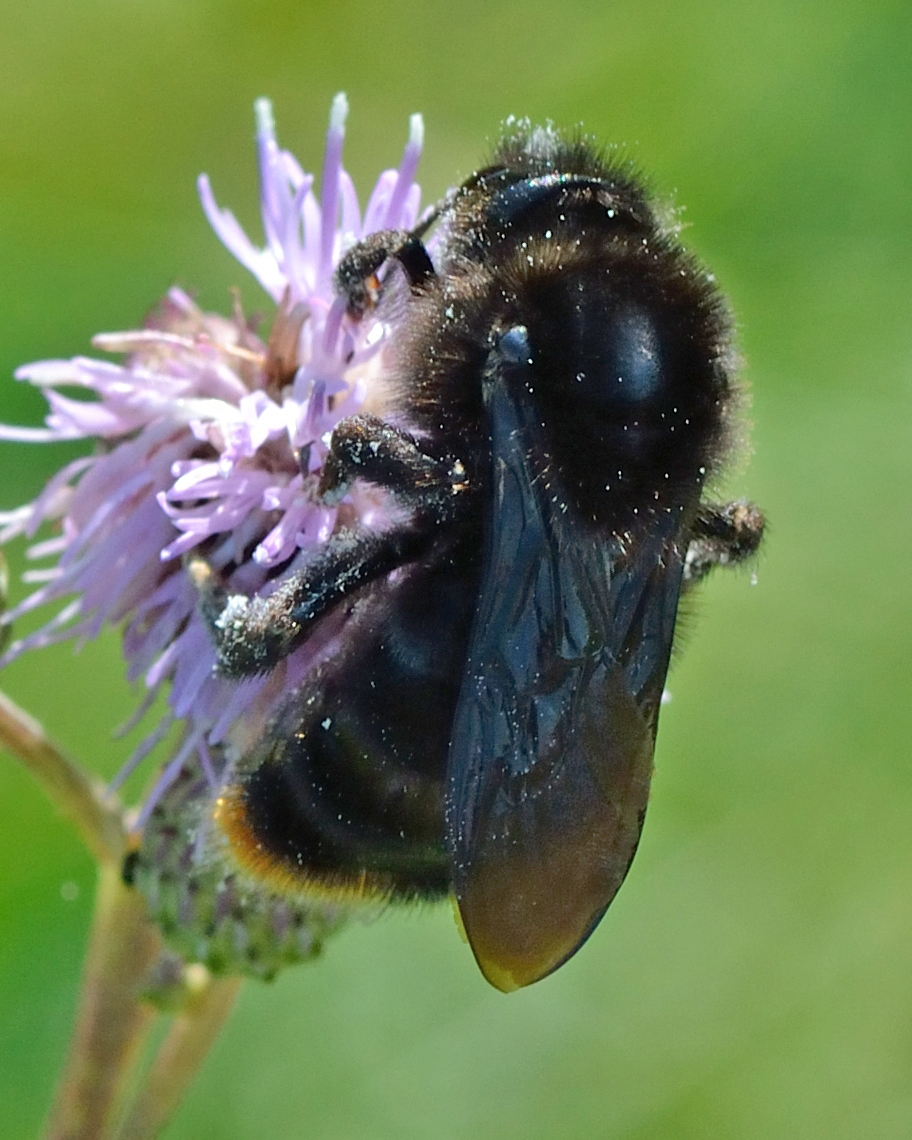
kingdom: Animalia
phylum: Arthropoda
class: Insecta
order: Hymenoptera
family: Apidae
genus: Bombus
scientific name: Bombus rupestris
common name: Hill cuckoo-bee
